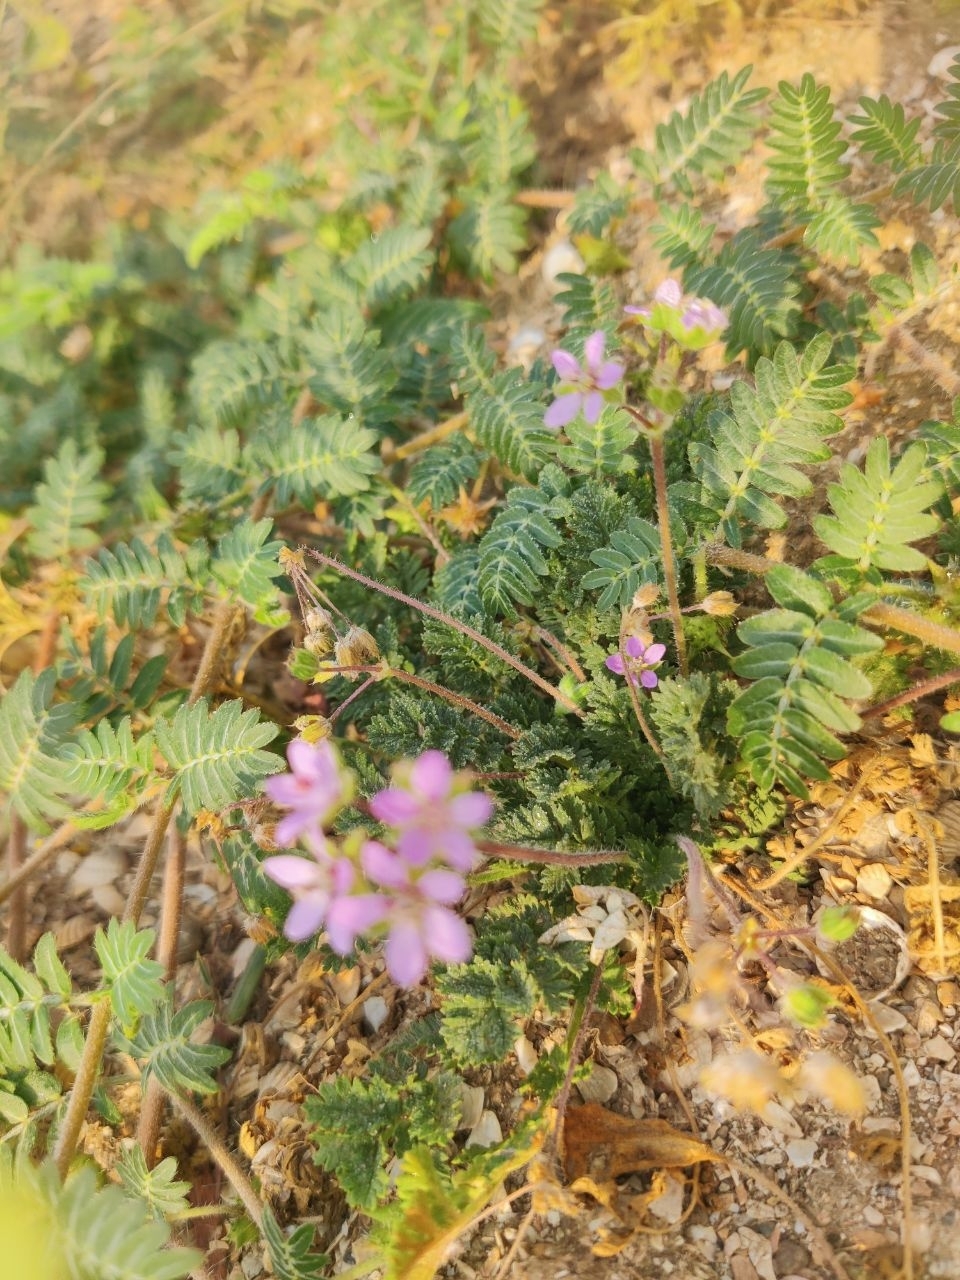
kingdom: Plantae
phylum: Tracheophyta
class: Magnoliopsida
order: Geraniales
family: Geraniaceae
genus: Erodium
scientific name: Erodium cicutarium
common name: Common stork's-bill
